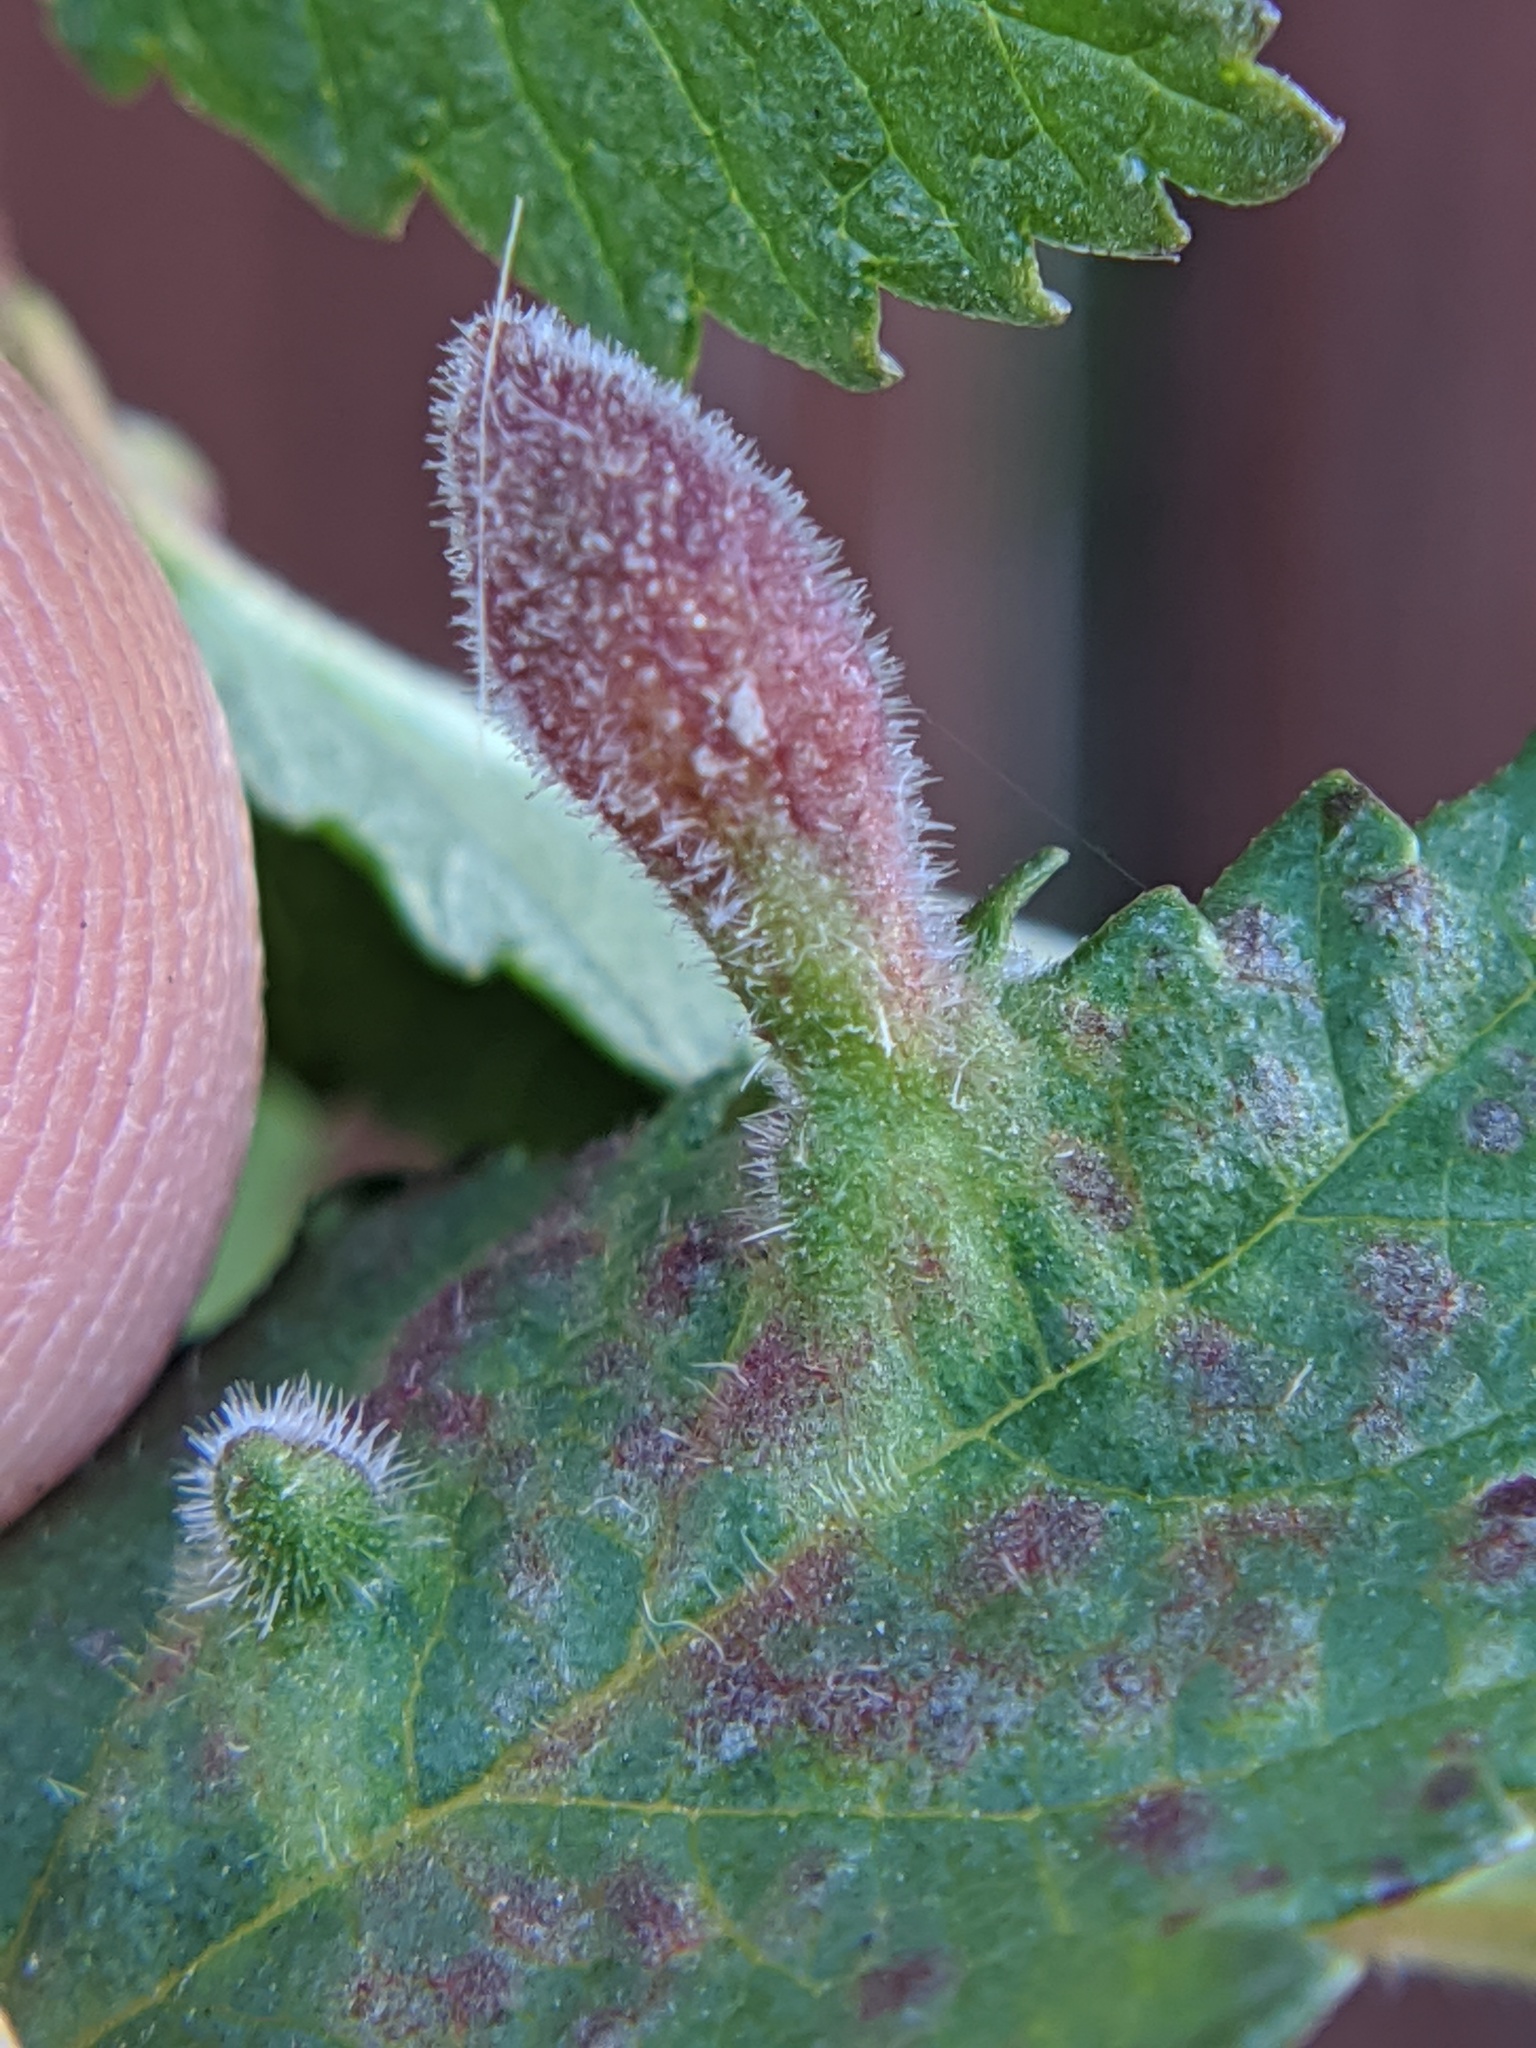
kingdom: Animalia
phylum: Arthropoda
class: Insecta
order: Hemiptera
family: Aphididae
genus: Tetraneura
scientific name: Tetraneura nigriabdominalis
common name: Aphid
